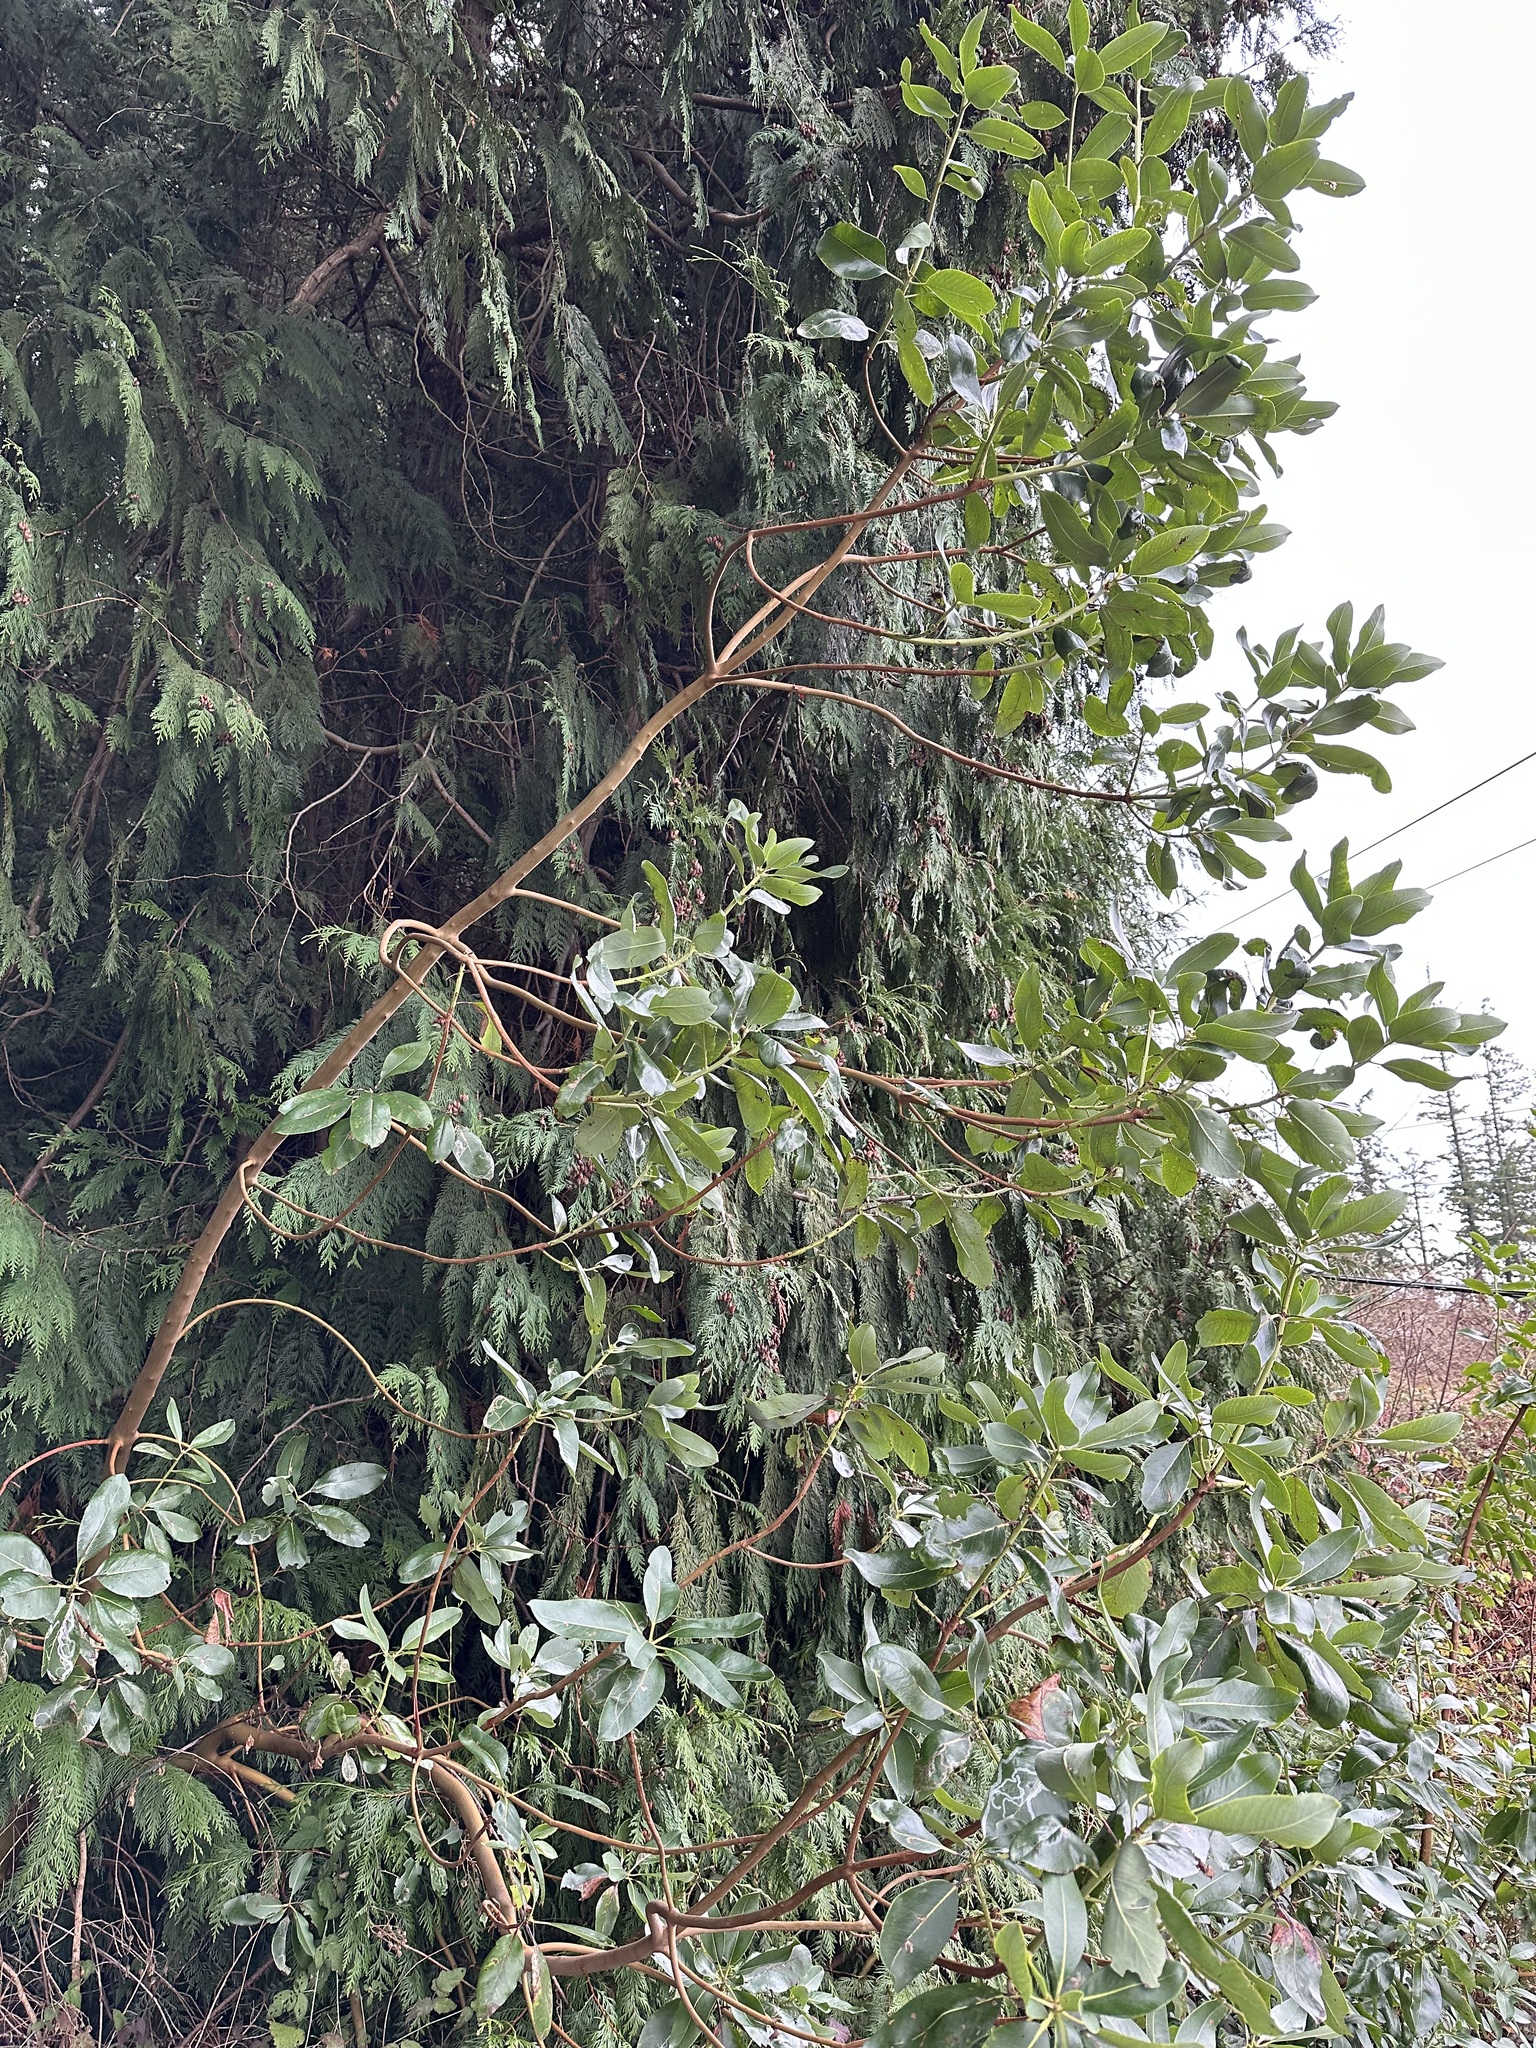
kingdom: Animalia
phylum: Arthropoda
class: Insecta
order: Lepidoptera
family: Gracillariidae
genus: Marmara
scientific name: Marmara arbutiella
